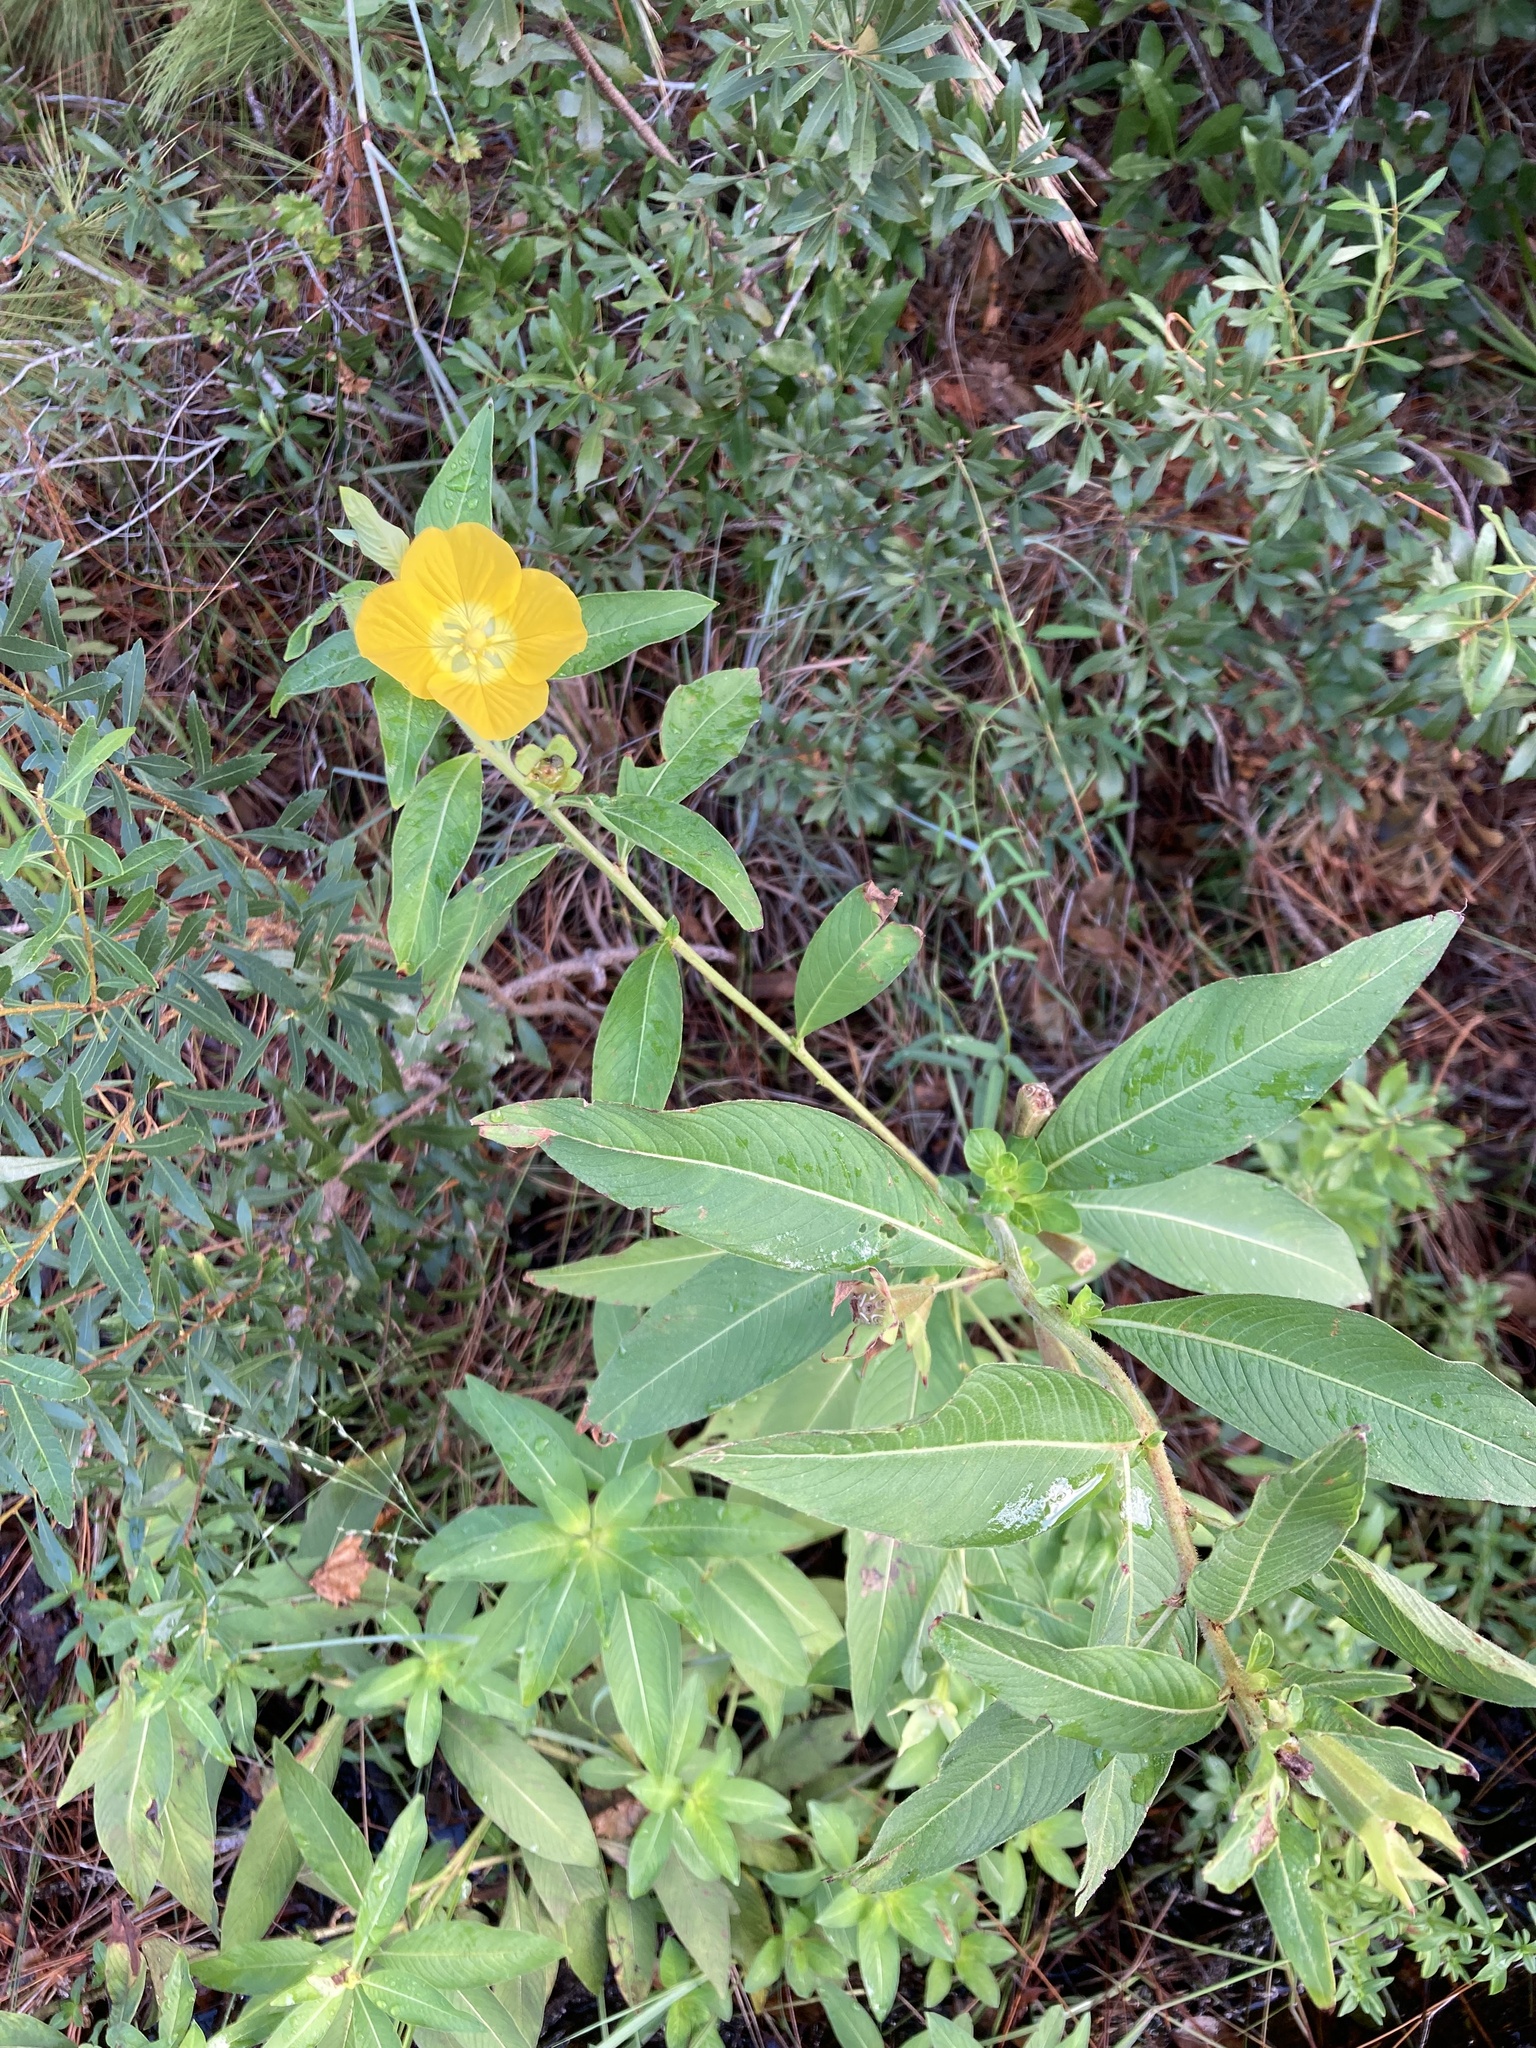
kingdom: Plantae
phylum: Tracheophyta
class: Magnoliopsida
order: Myrtales
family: Onagraceae
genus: Ludwigia
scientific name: Ludwigia peruviana
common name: Peruvian primrose-willow
